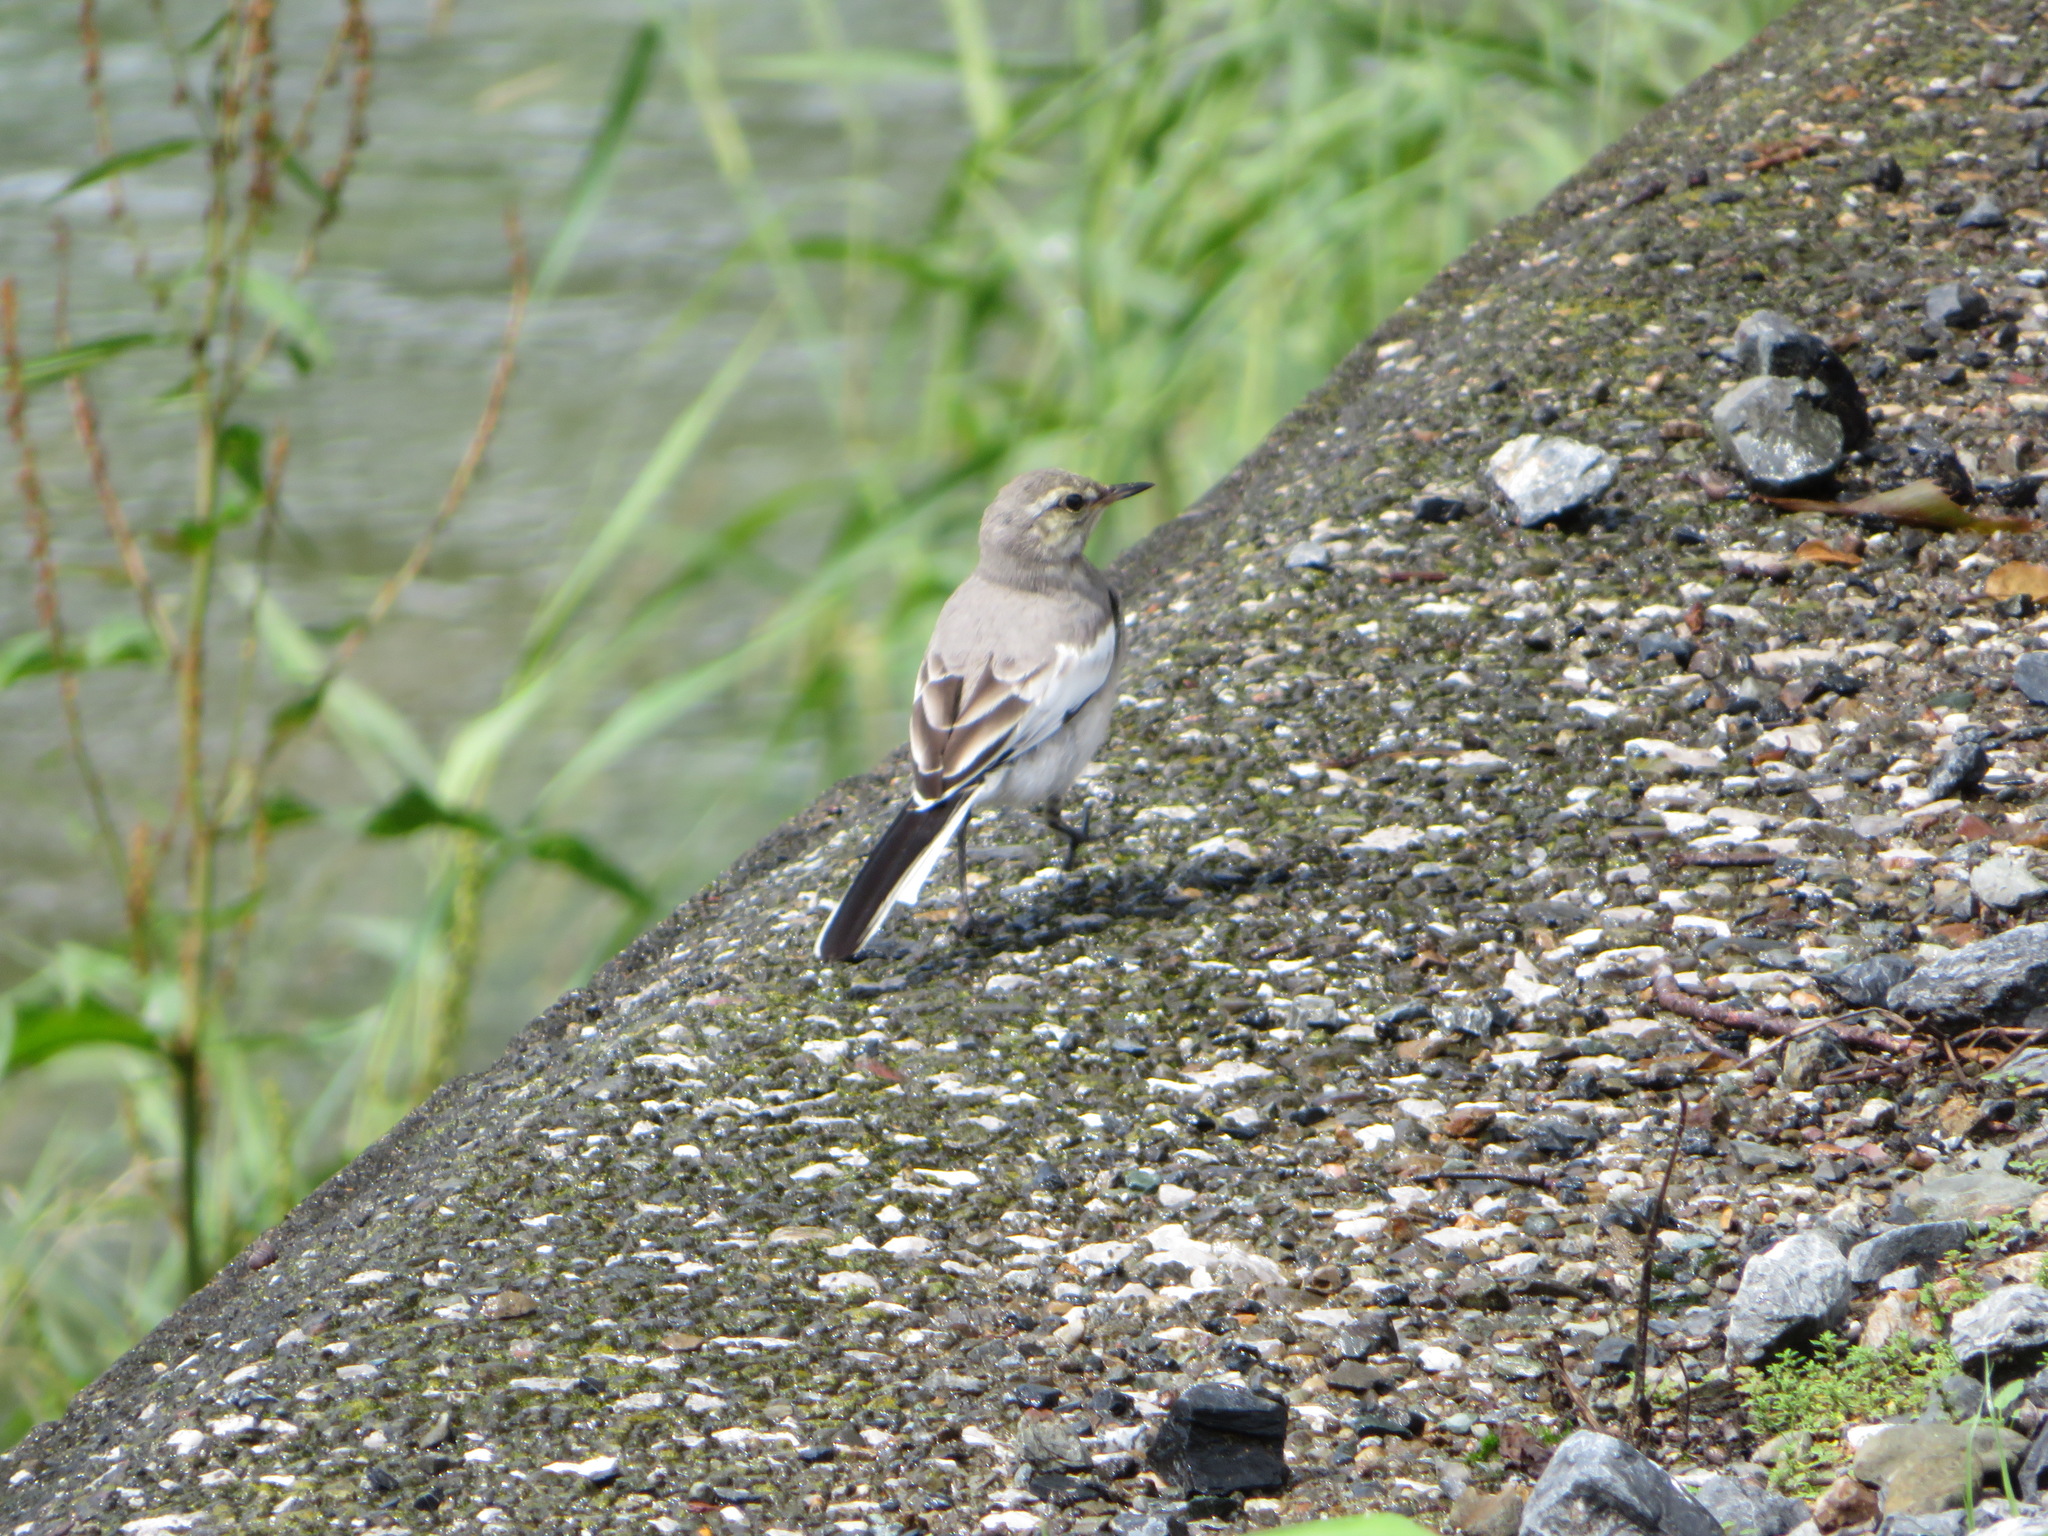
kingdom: Animalia
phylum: Chordata
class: Aves
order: Passeriformes
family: Motacillidae
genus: Motacilla
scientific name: Motacilla alba
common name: White wagtail
